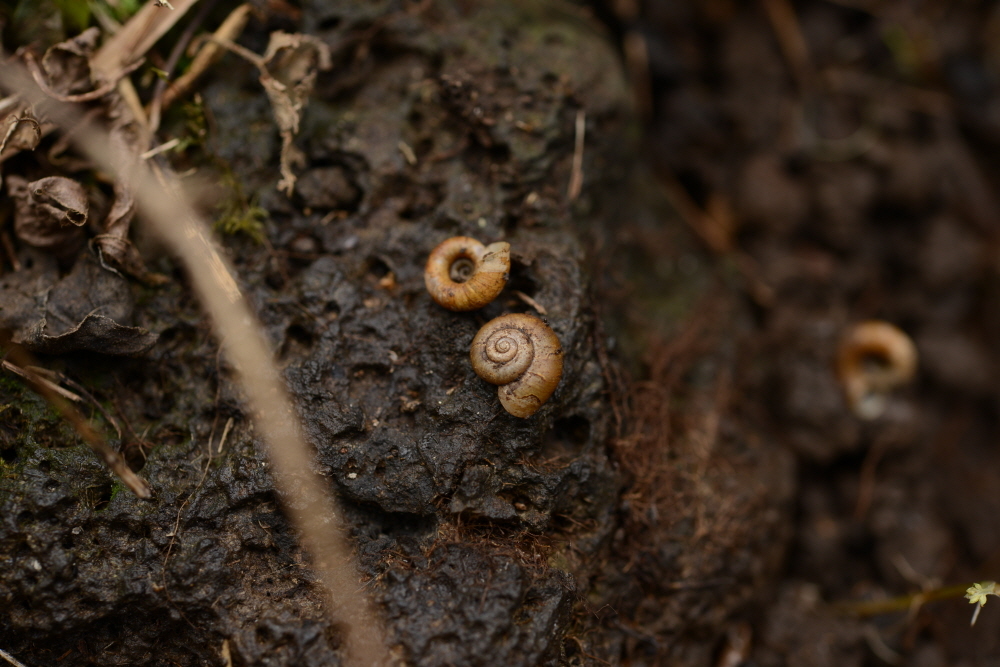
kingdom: Animalia
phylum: Mollusca
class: Gastropoda
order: Architaenioglossa
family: Cyclophoridae
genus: Spirostoma
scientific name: Spirostoma japonicum
